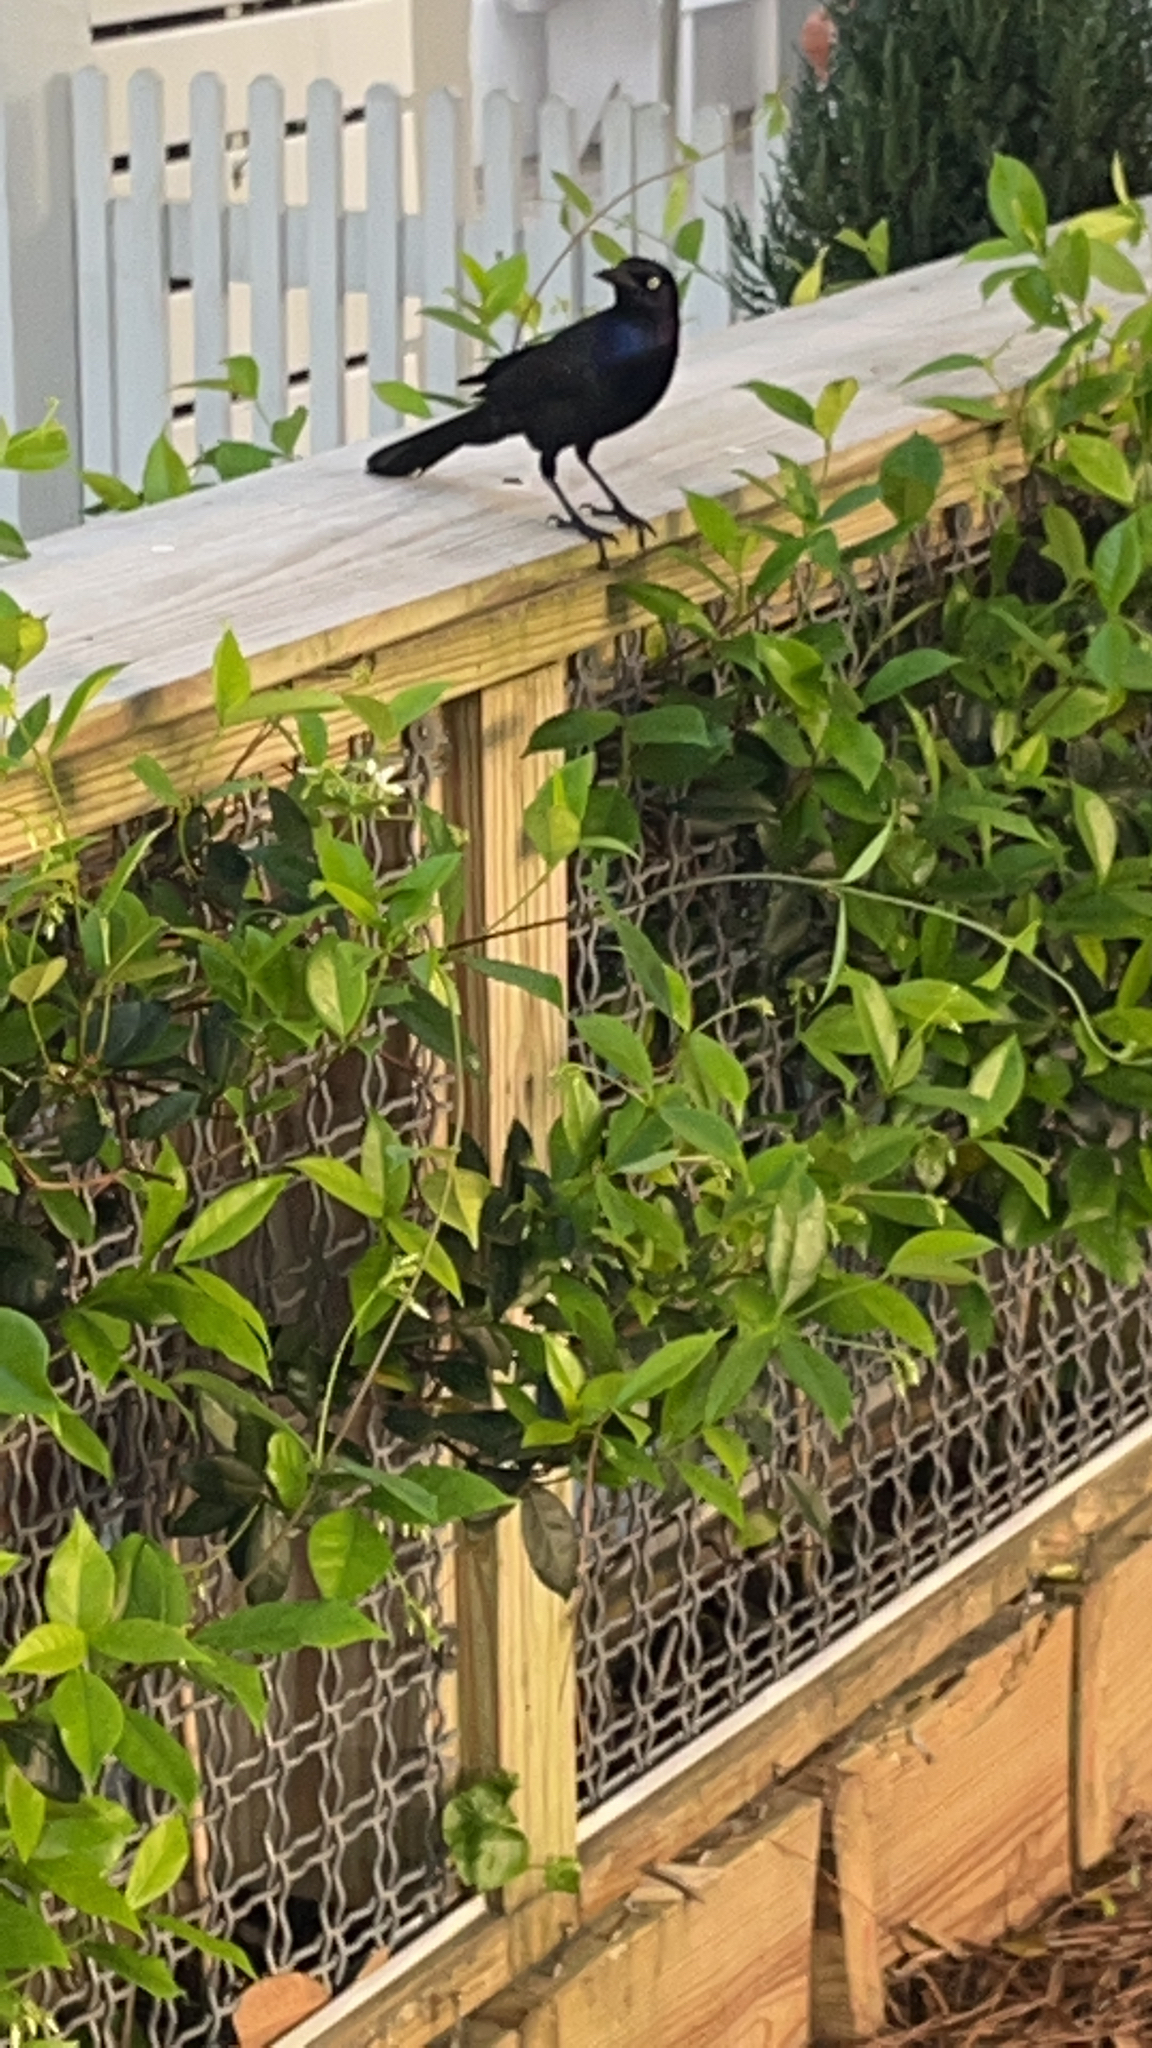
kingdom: Animalia
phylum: Chordata
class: Aves
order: Passeriformes
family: Icteridae
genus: Quiscalus
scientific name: Quiscalus major
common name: Boat-tailed grackle
